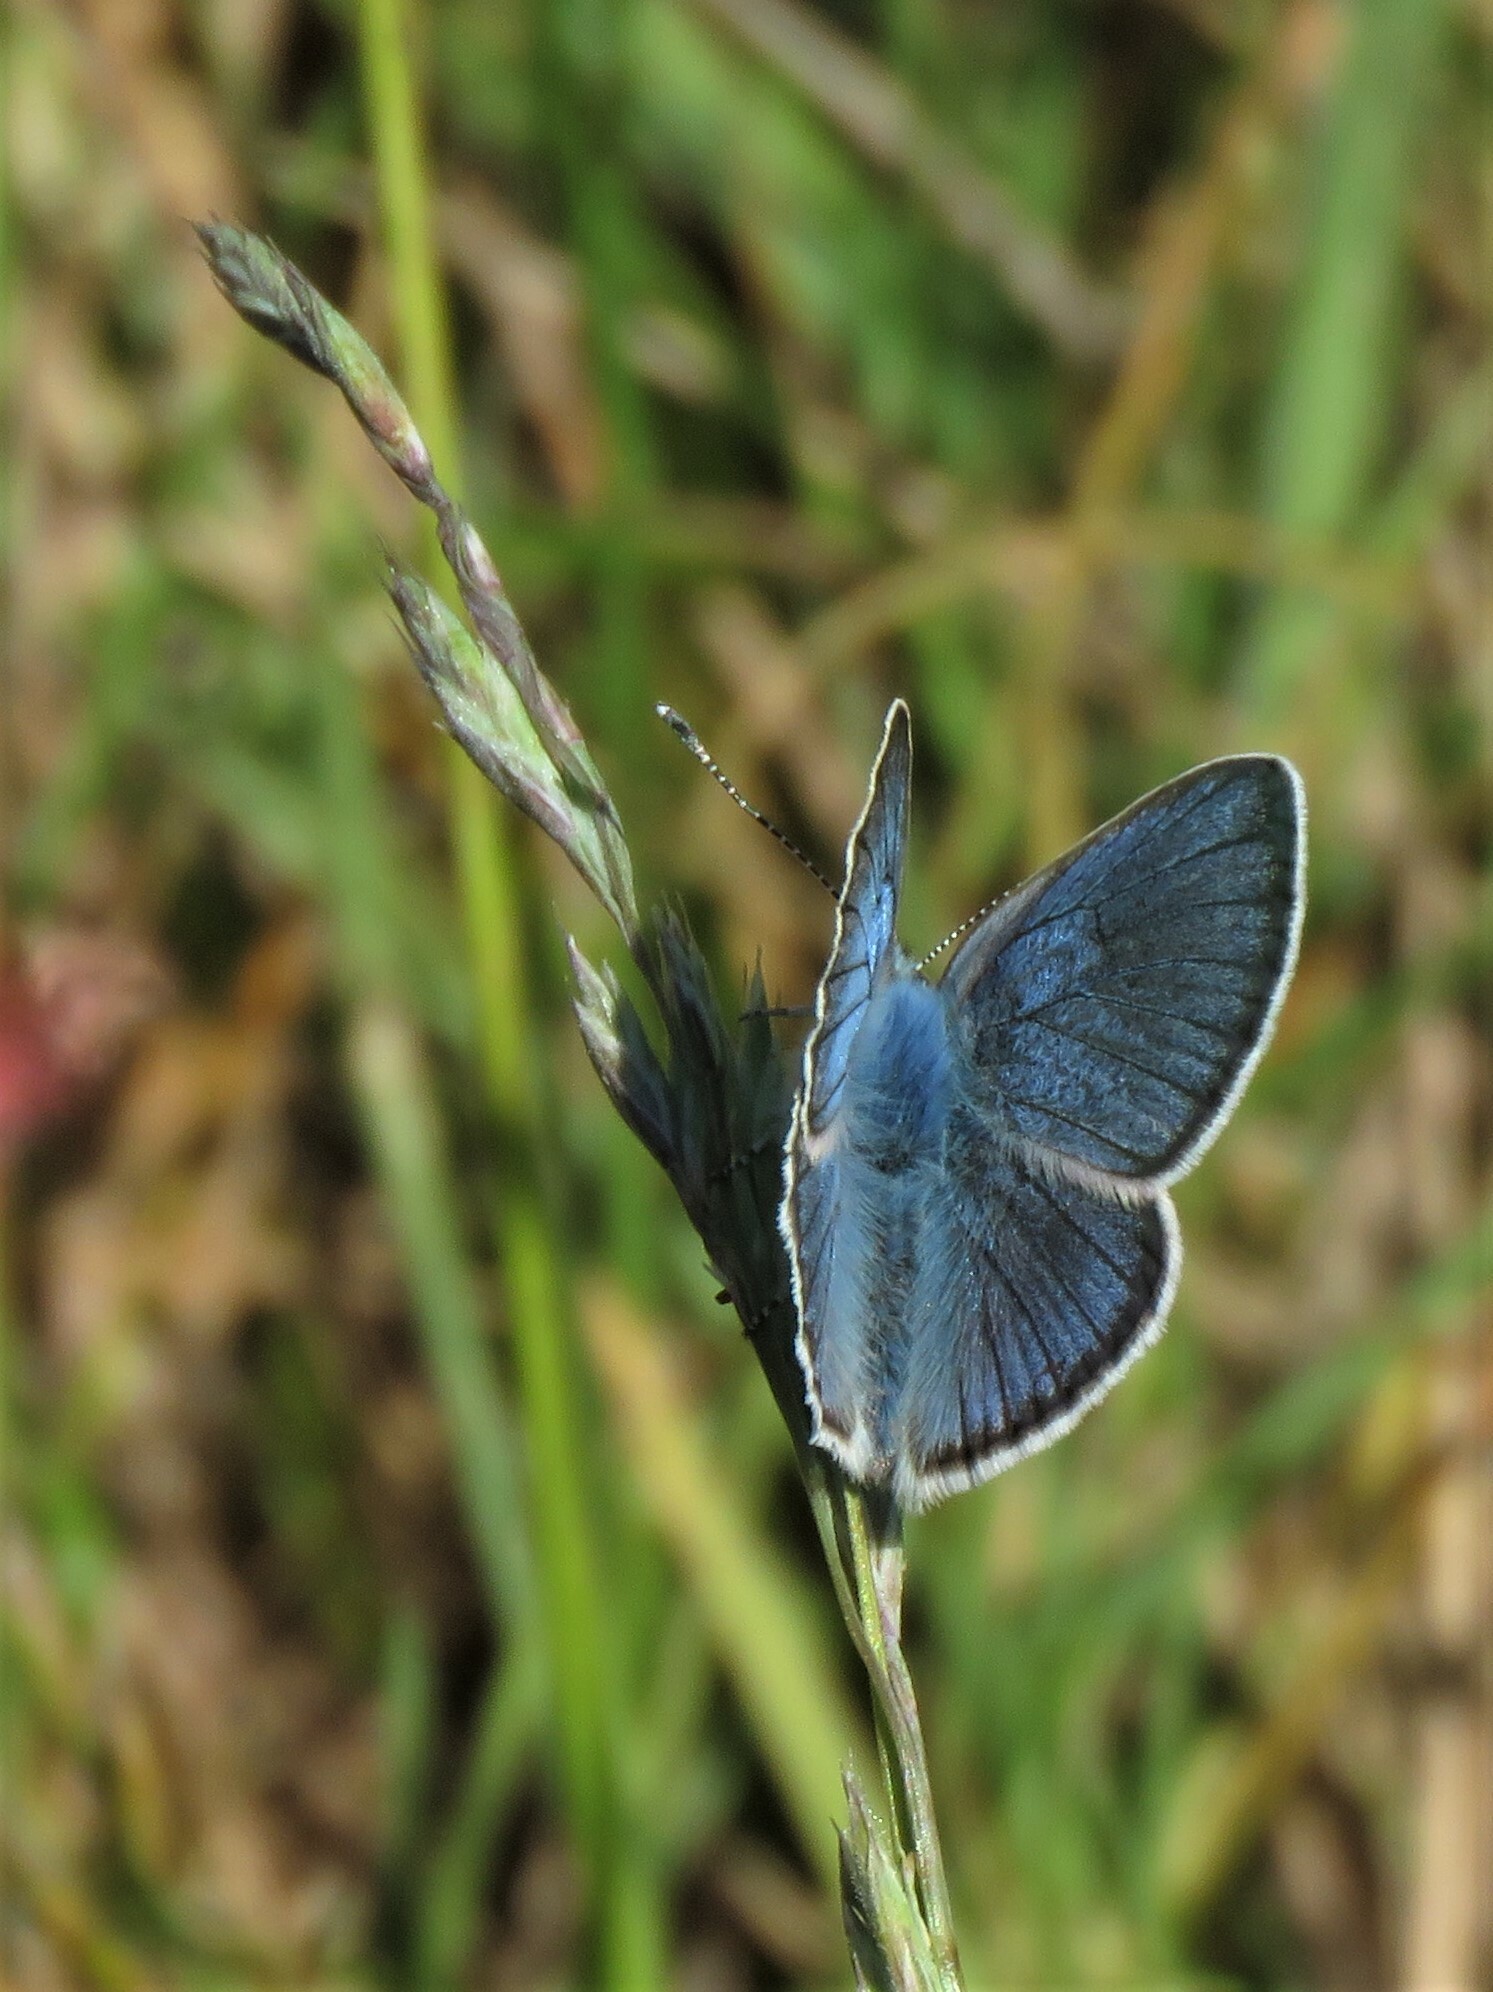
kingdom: Animalia
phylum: Arthropoda
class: Insecta
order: Lepidoptera
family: Lycaenidae
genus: Cyaniris
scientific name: Cyaniris semiargus
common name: Mazarine blue
